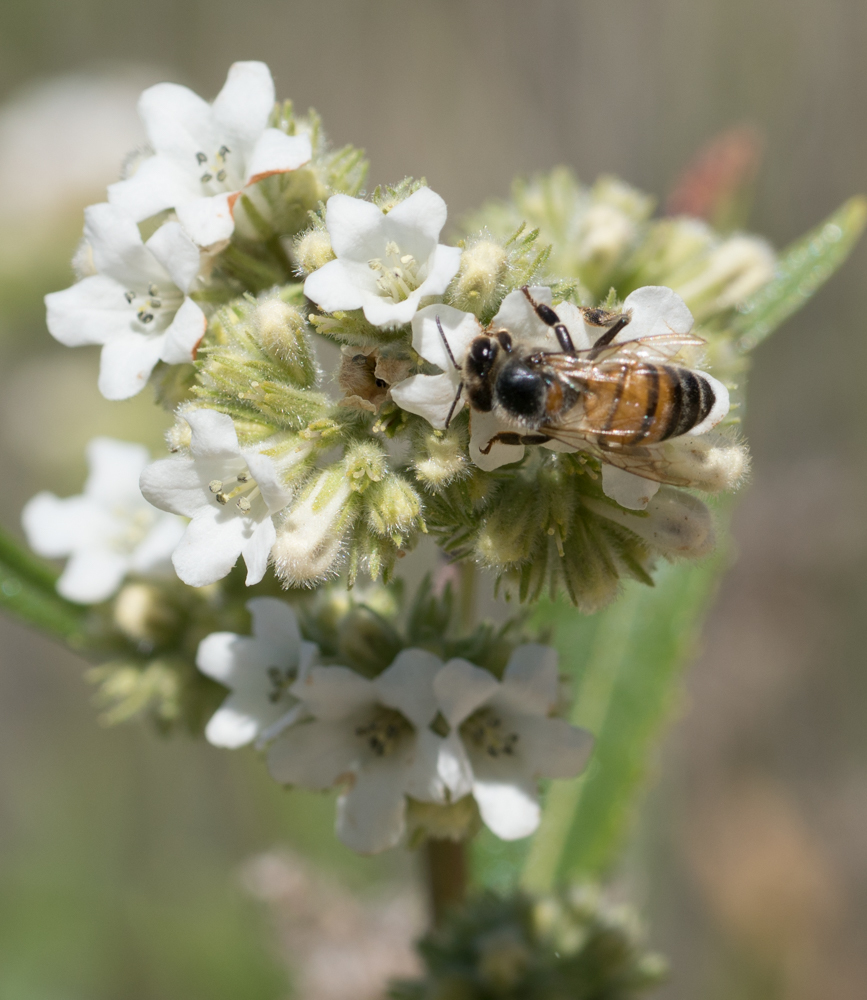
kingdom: Animalia
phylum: Arthropoda
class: Insecta
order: Hymenoptera
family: Apidae
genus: Apis
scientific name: Apis mellifera
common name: Honey bee
